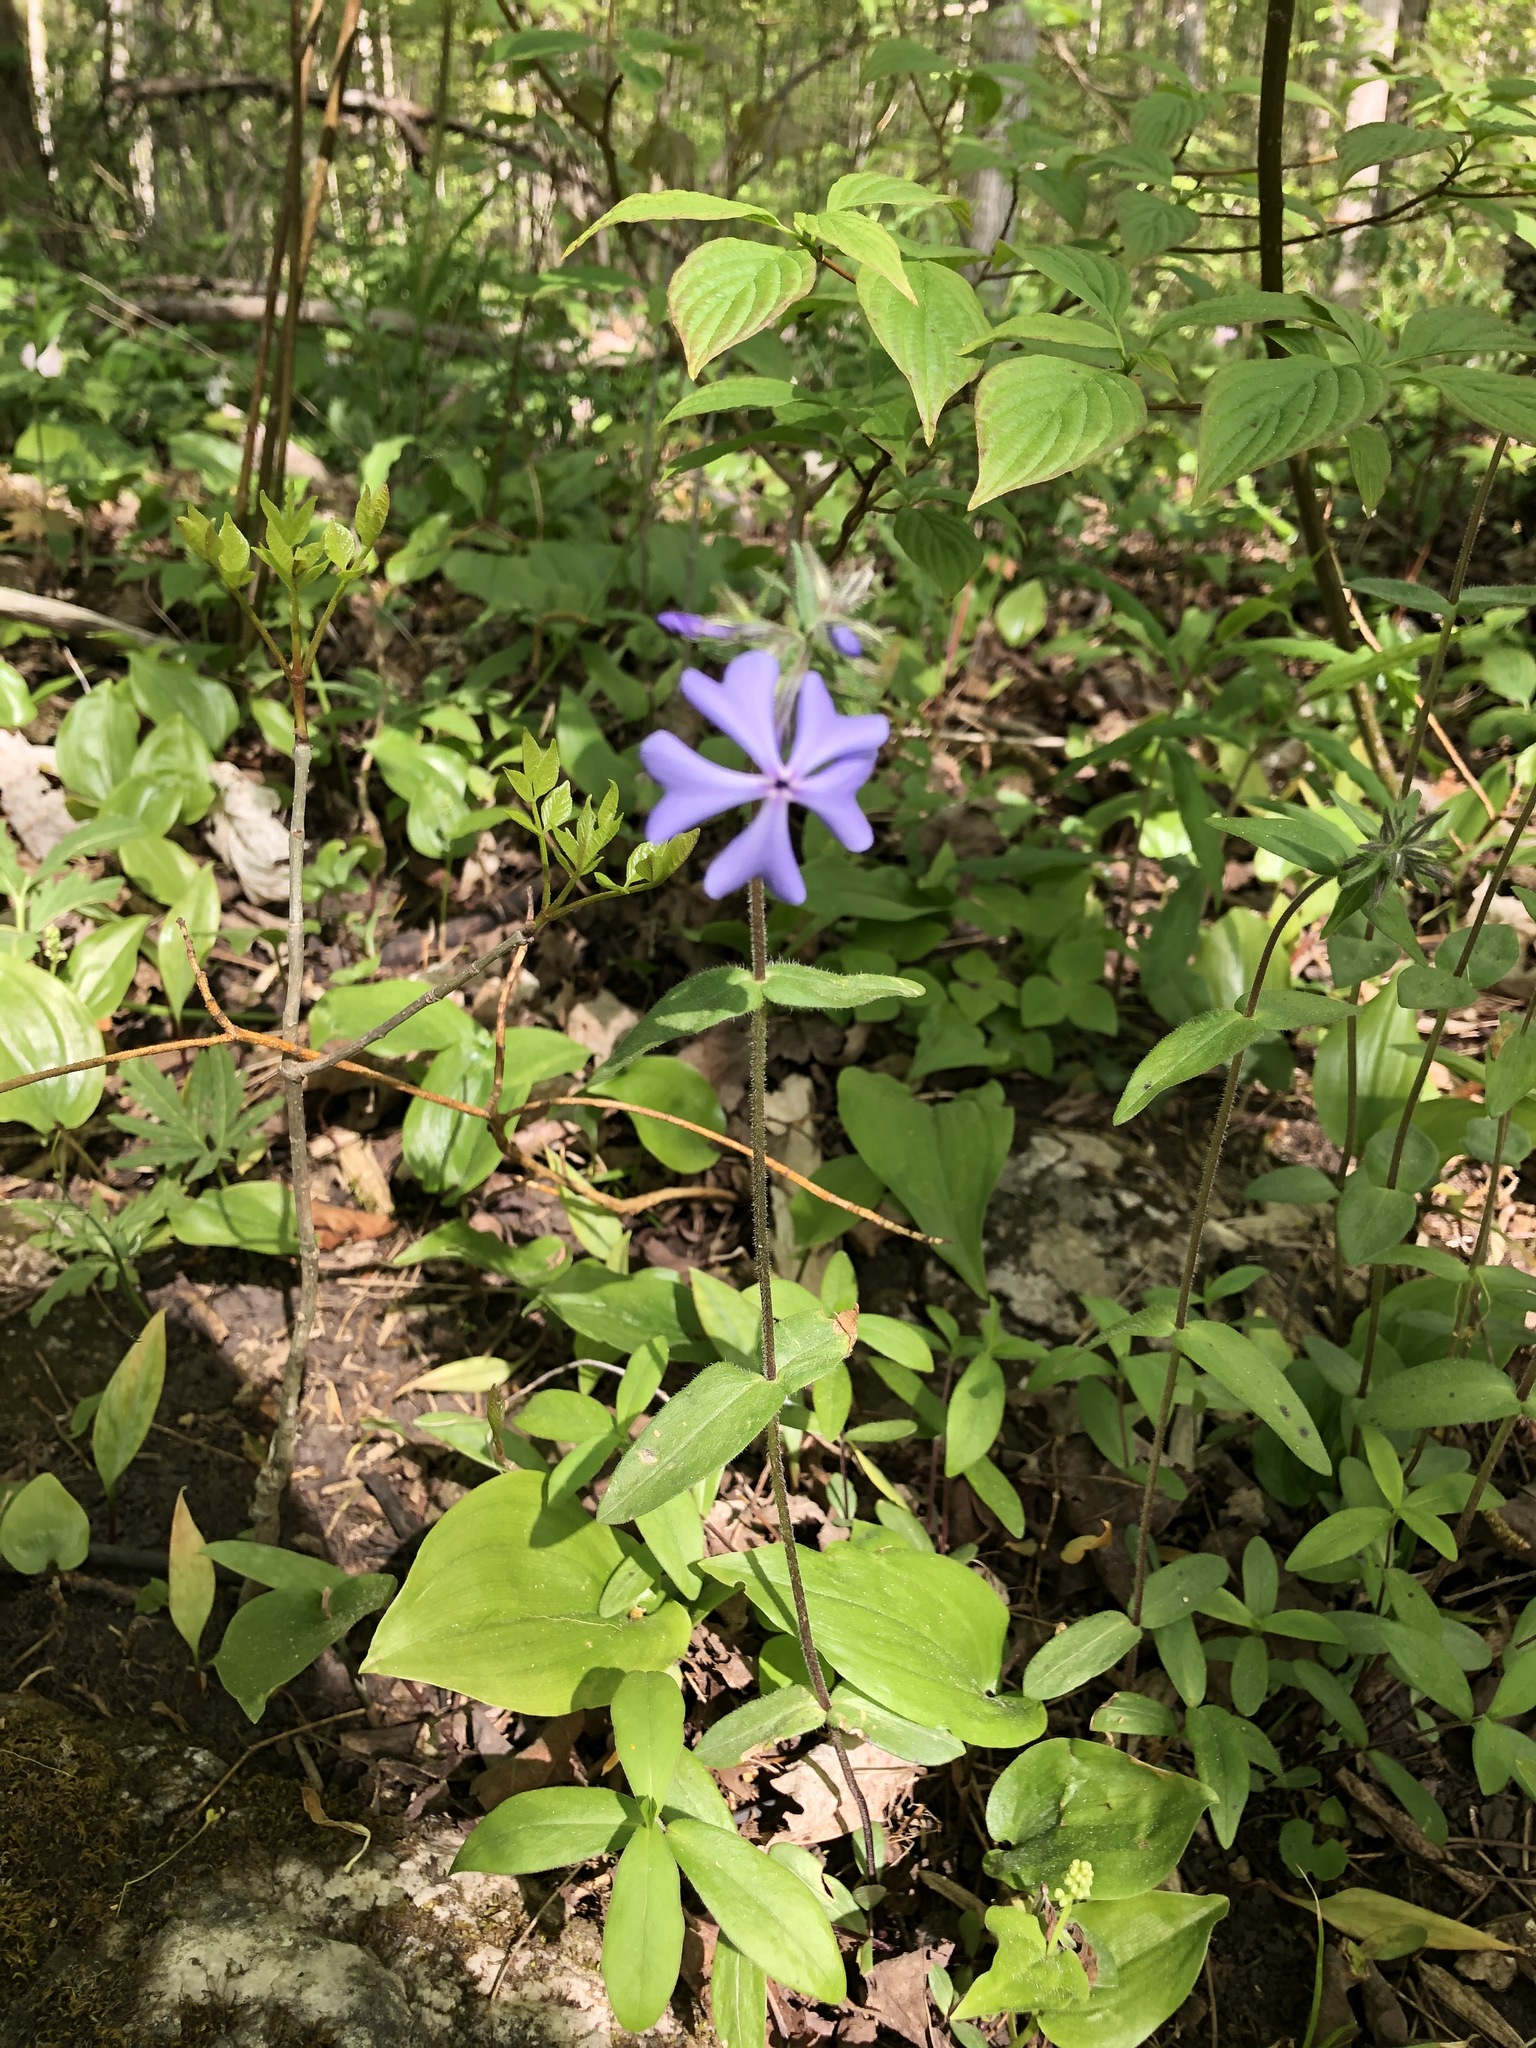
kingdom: Plantae
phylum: Tracheophyta
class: Magnoliopsida
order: Ericales
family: Polemoniaceae
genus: Phlox
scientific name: Phlox divaricata
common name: Blue phlox
